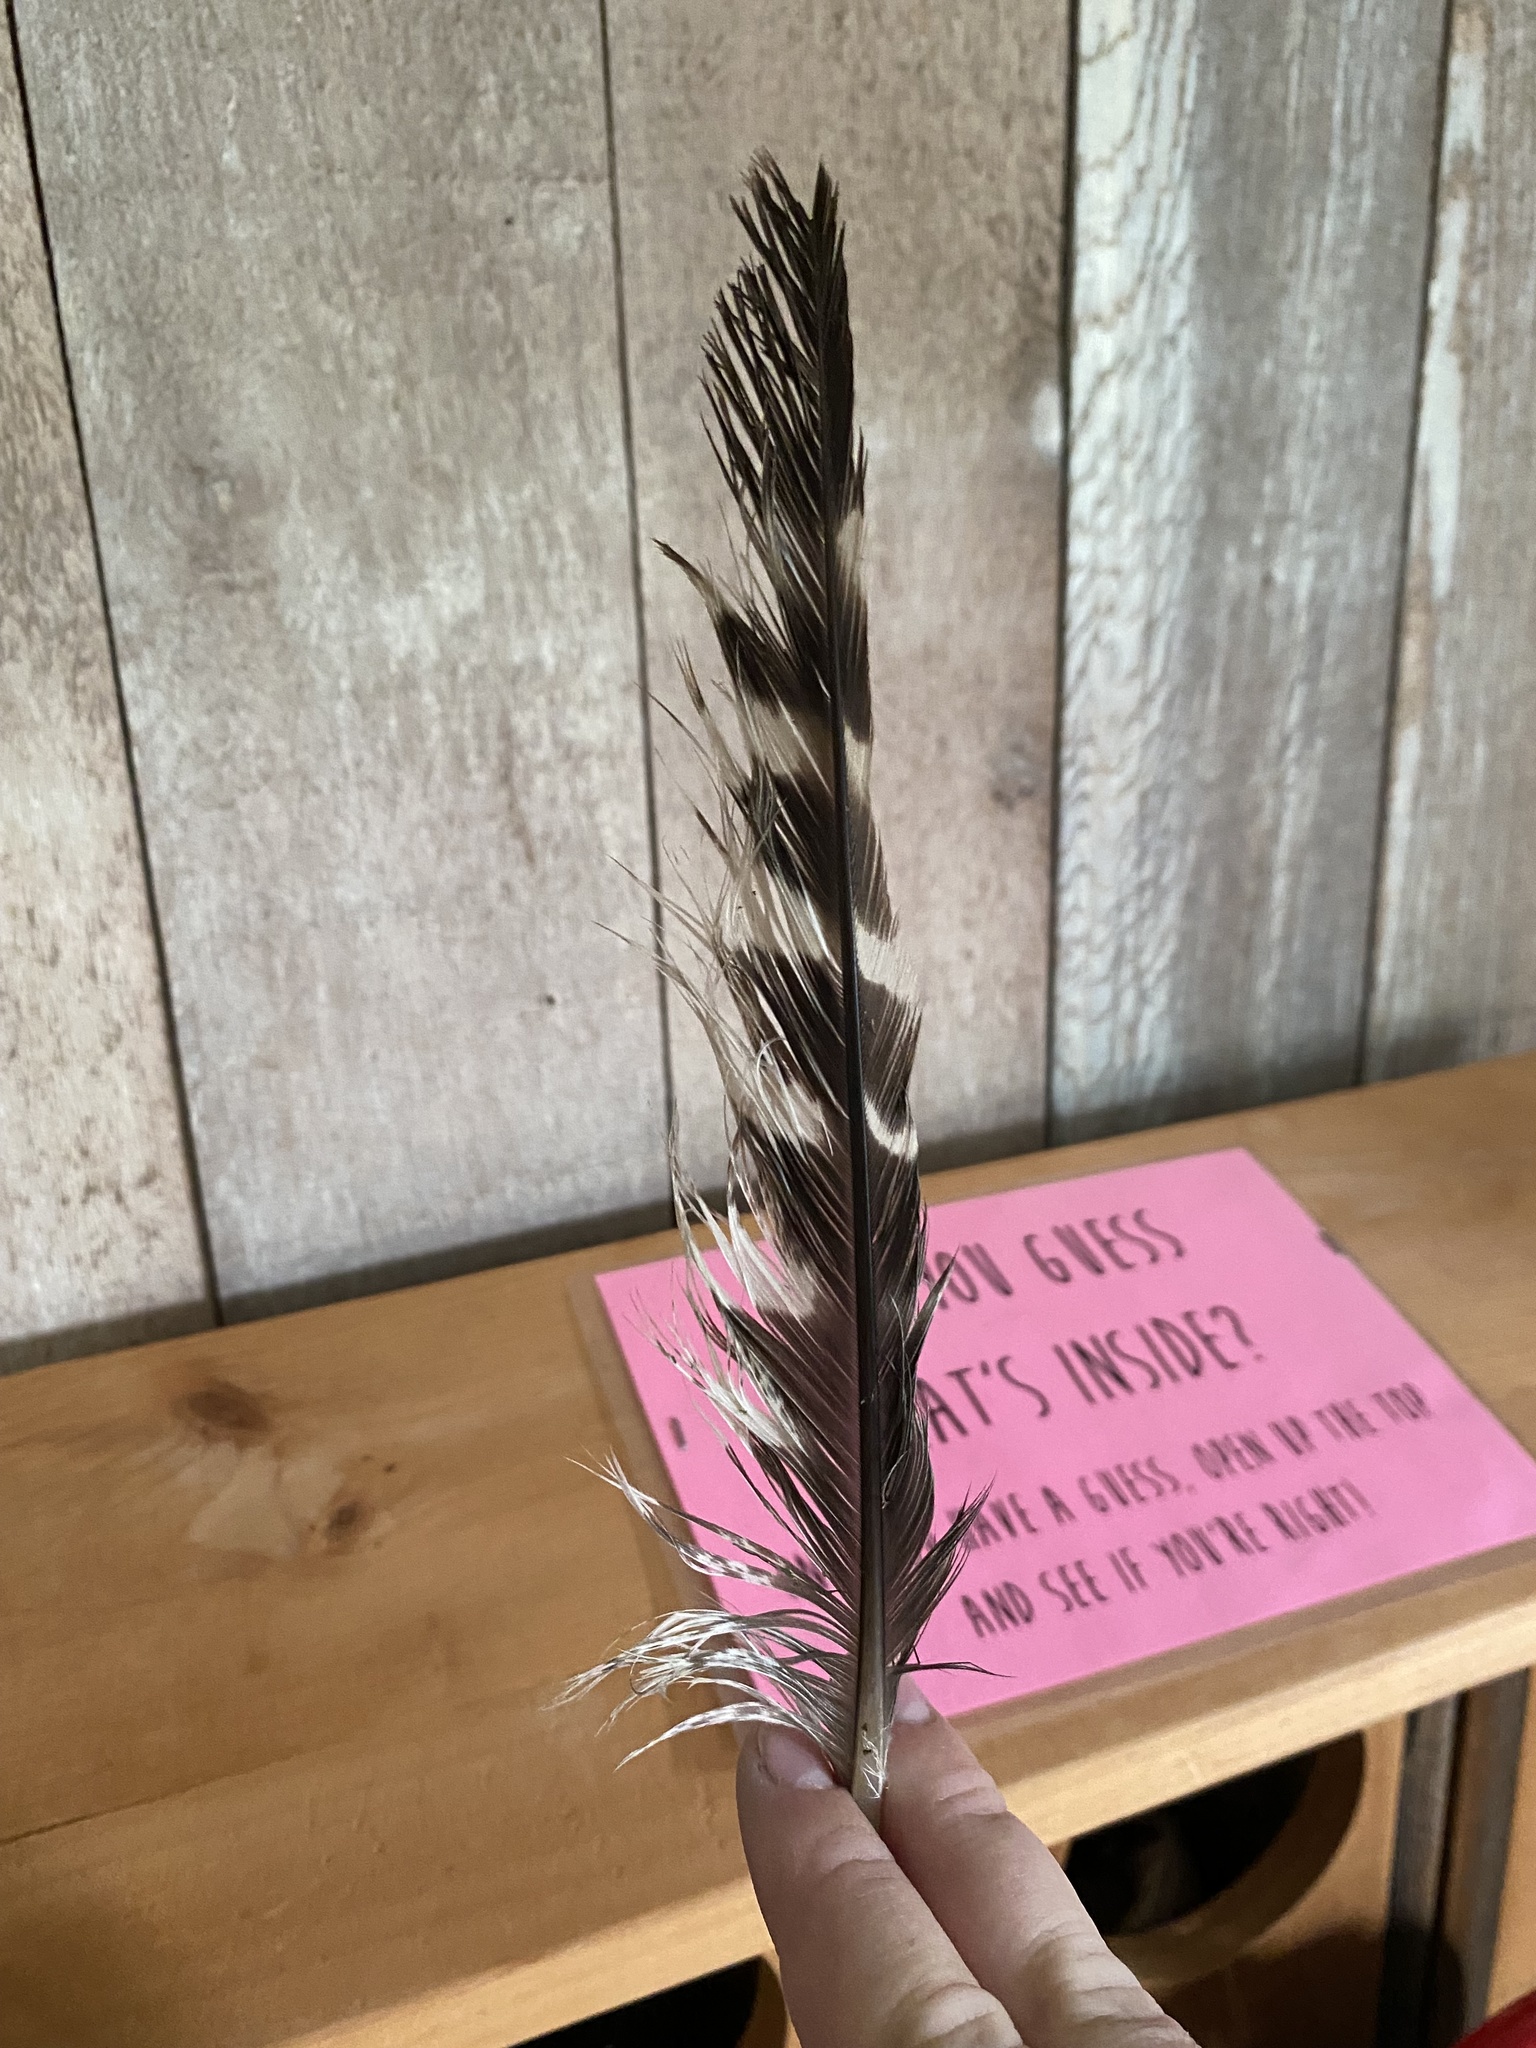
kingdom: Animalia
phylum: Chordata
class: Aves
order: Accipitriformes
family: Accipitridae
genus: Buteo
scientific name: Buteo lineatus
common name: Red-shouldered hawk
